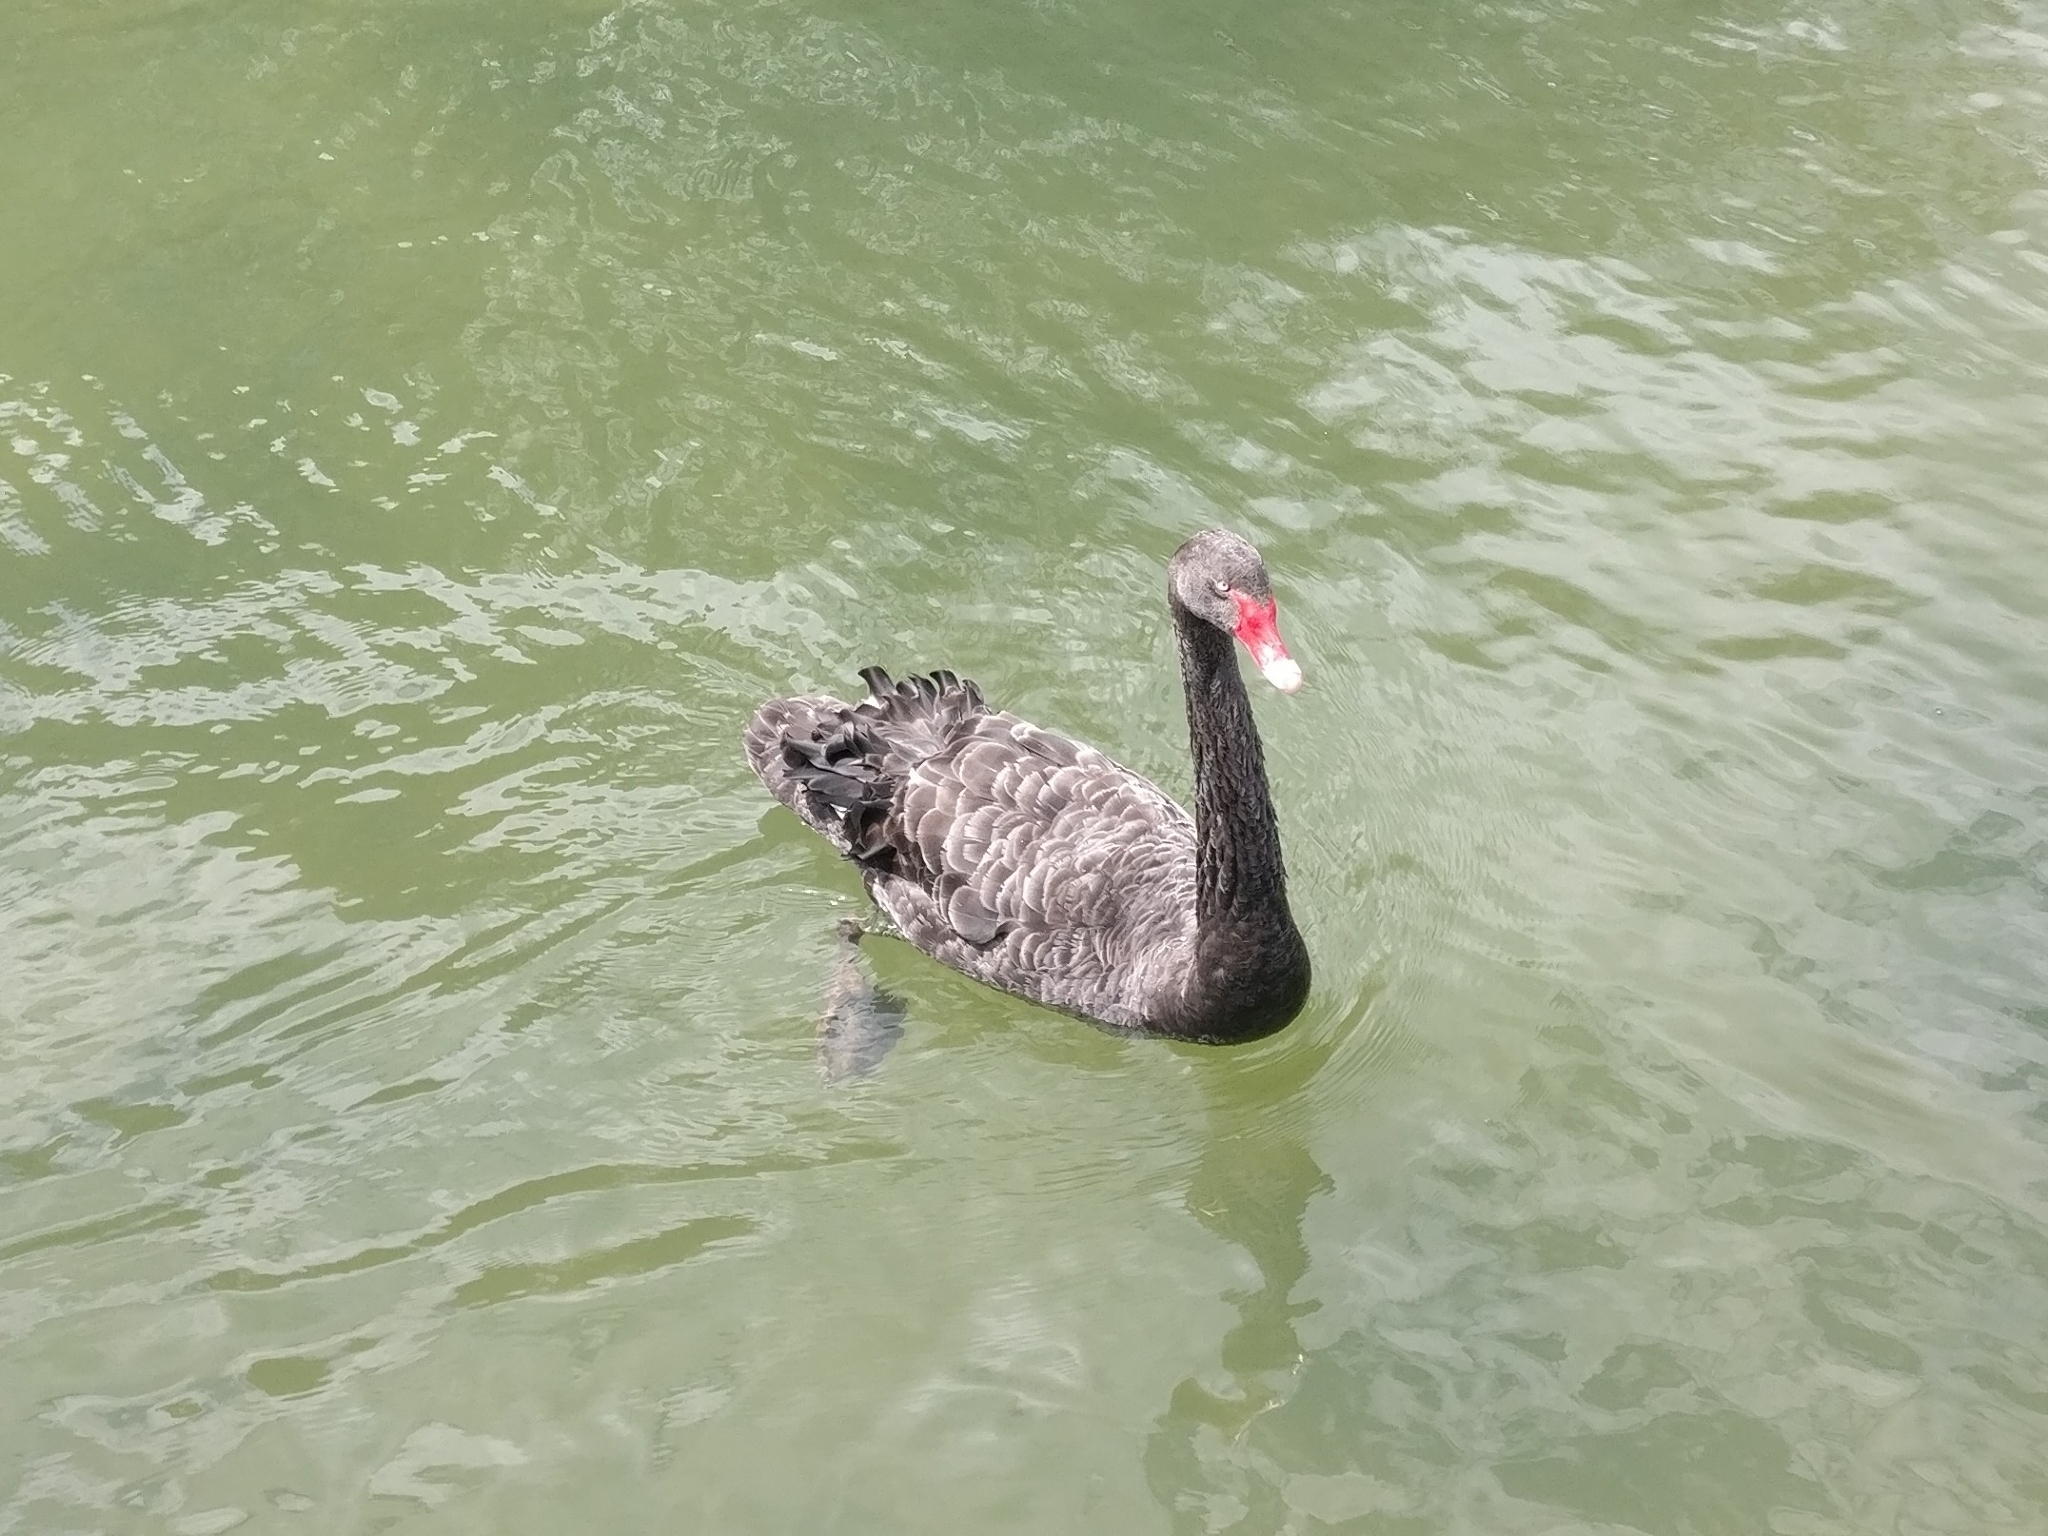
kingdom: Animalia
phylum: Chordata
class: Aves
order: Anseriformes
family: Anatidae
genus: Cygnus
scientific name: Cygnus atratus
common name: Black swan
